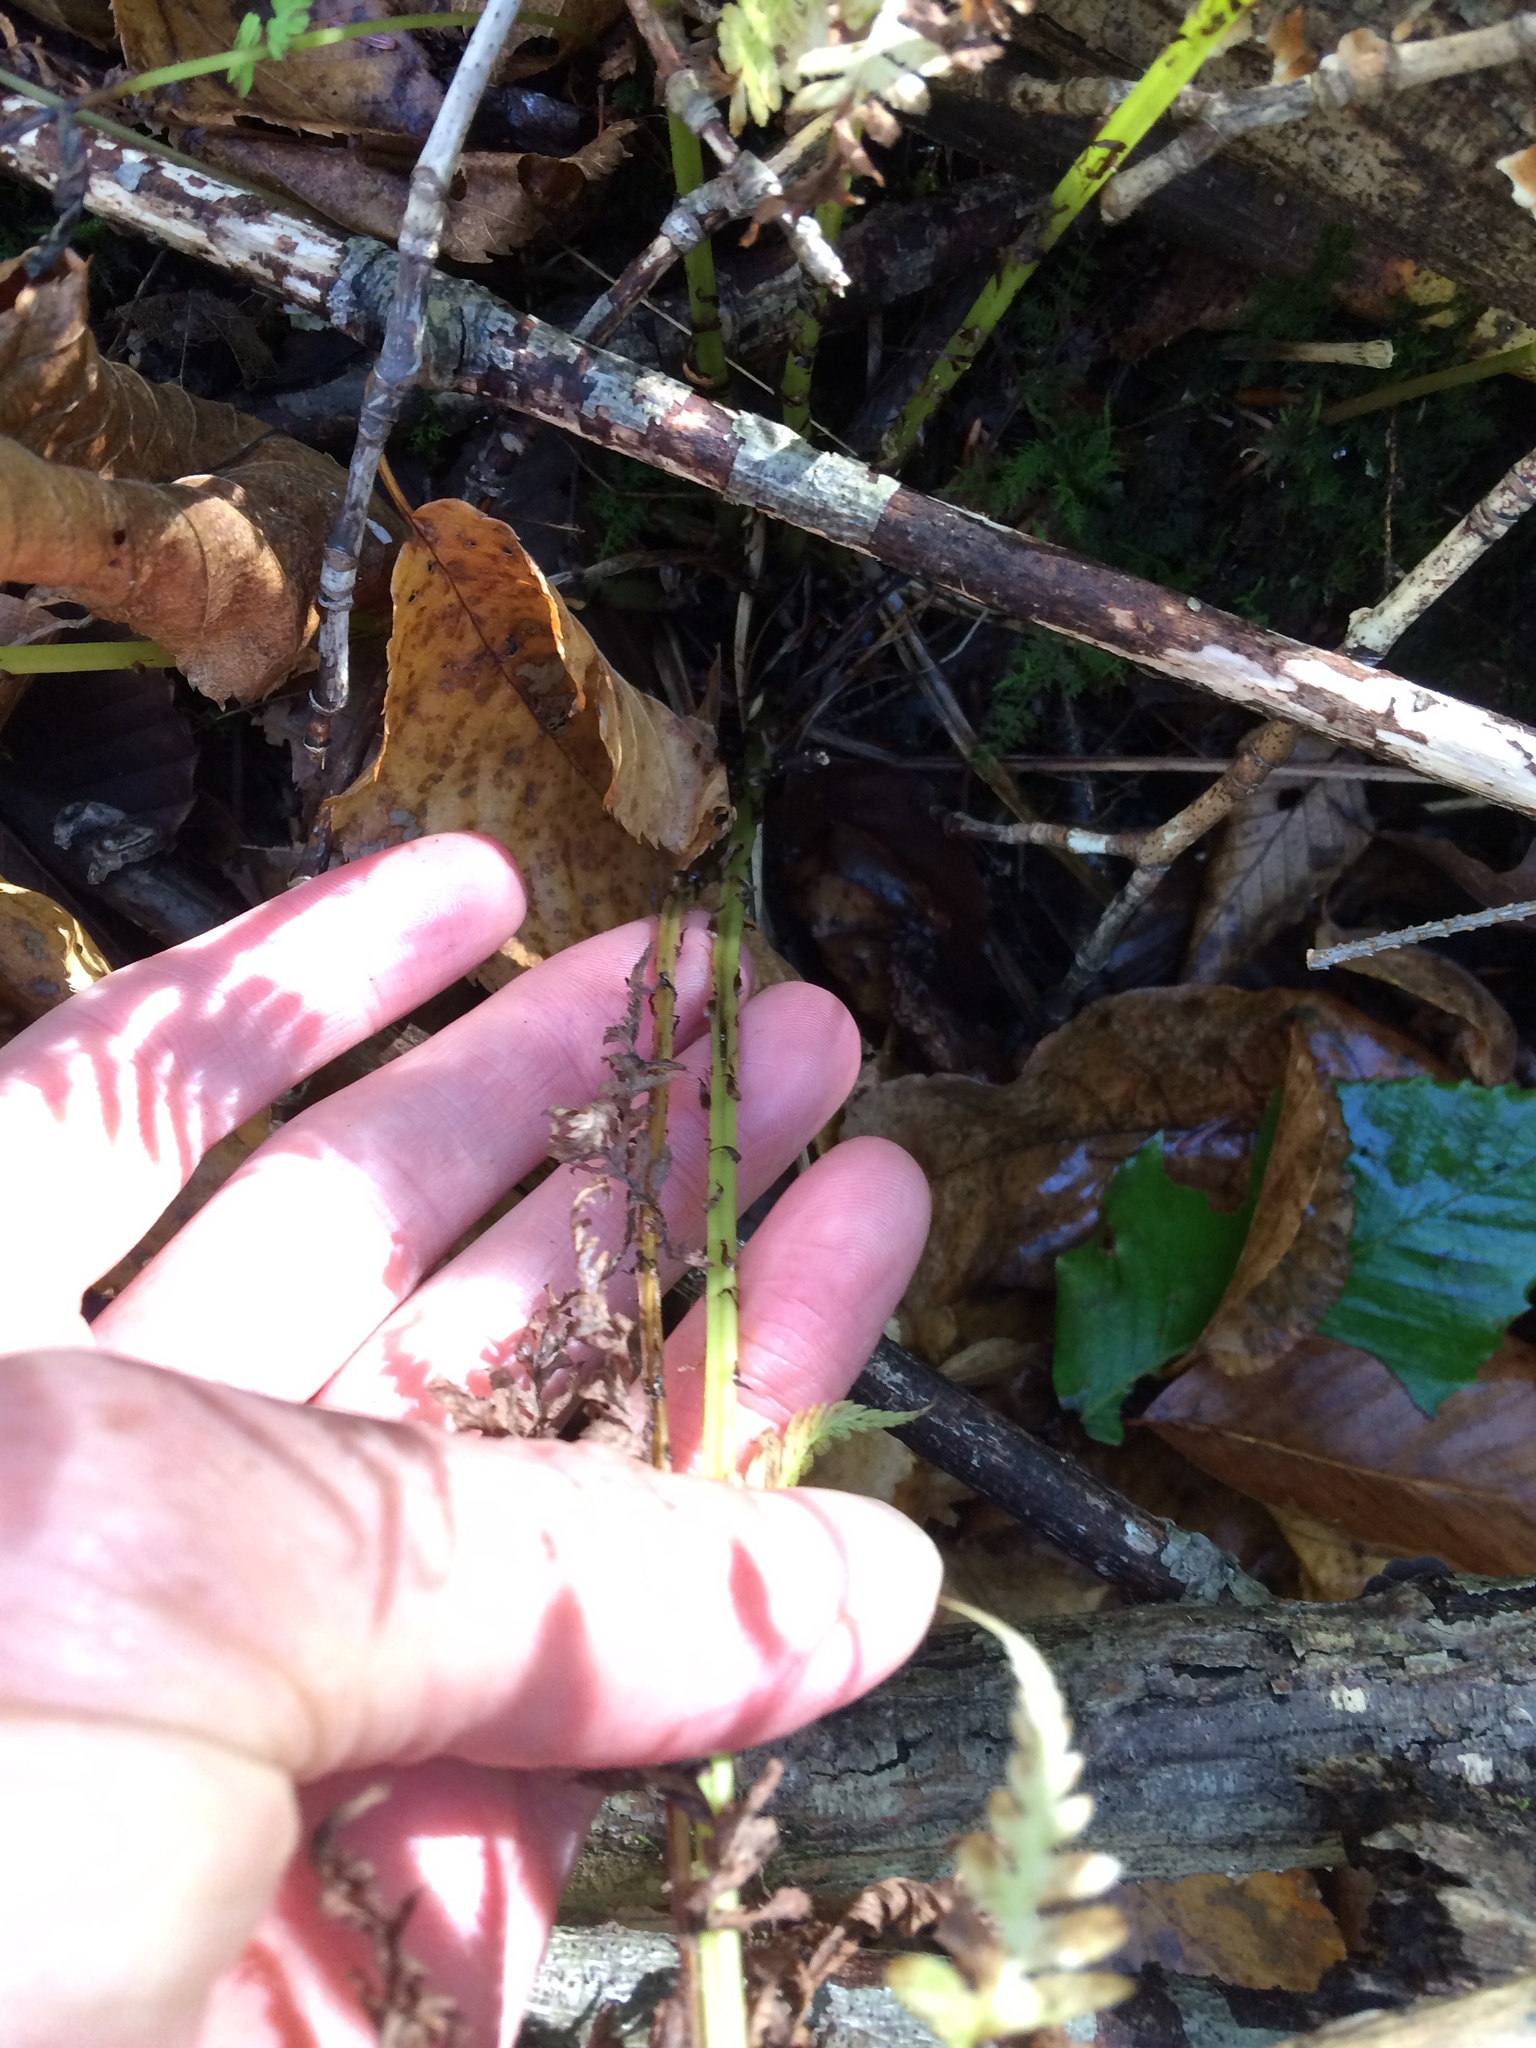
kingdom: Plantae
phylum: Tracheophyta
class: Polypodiopsida
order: Polypodiales
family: Athyriaceae
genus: Athyrium
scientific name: Athyrium angustum
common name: Northern lady fern
